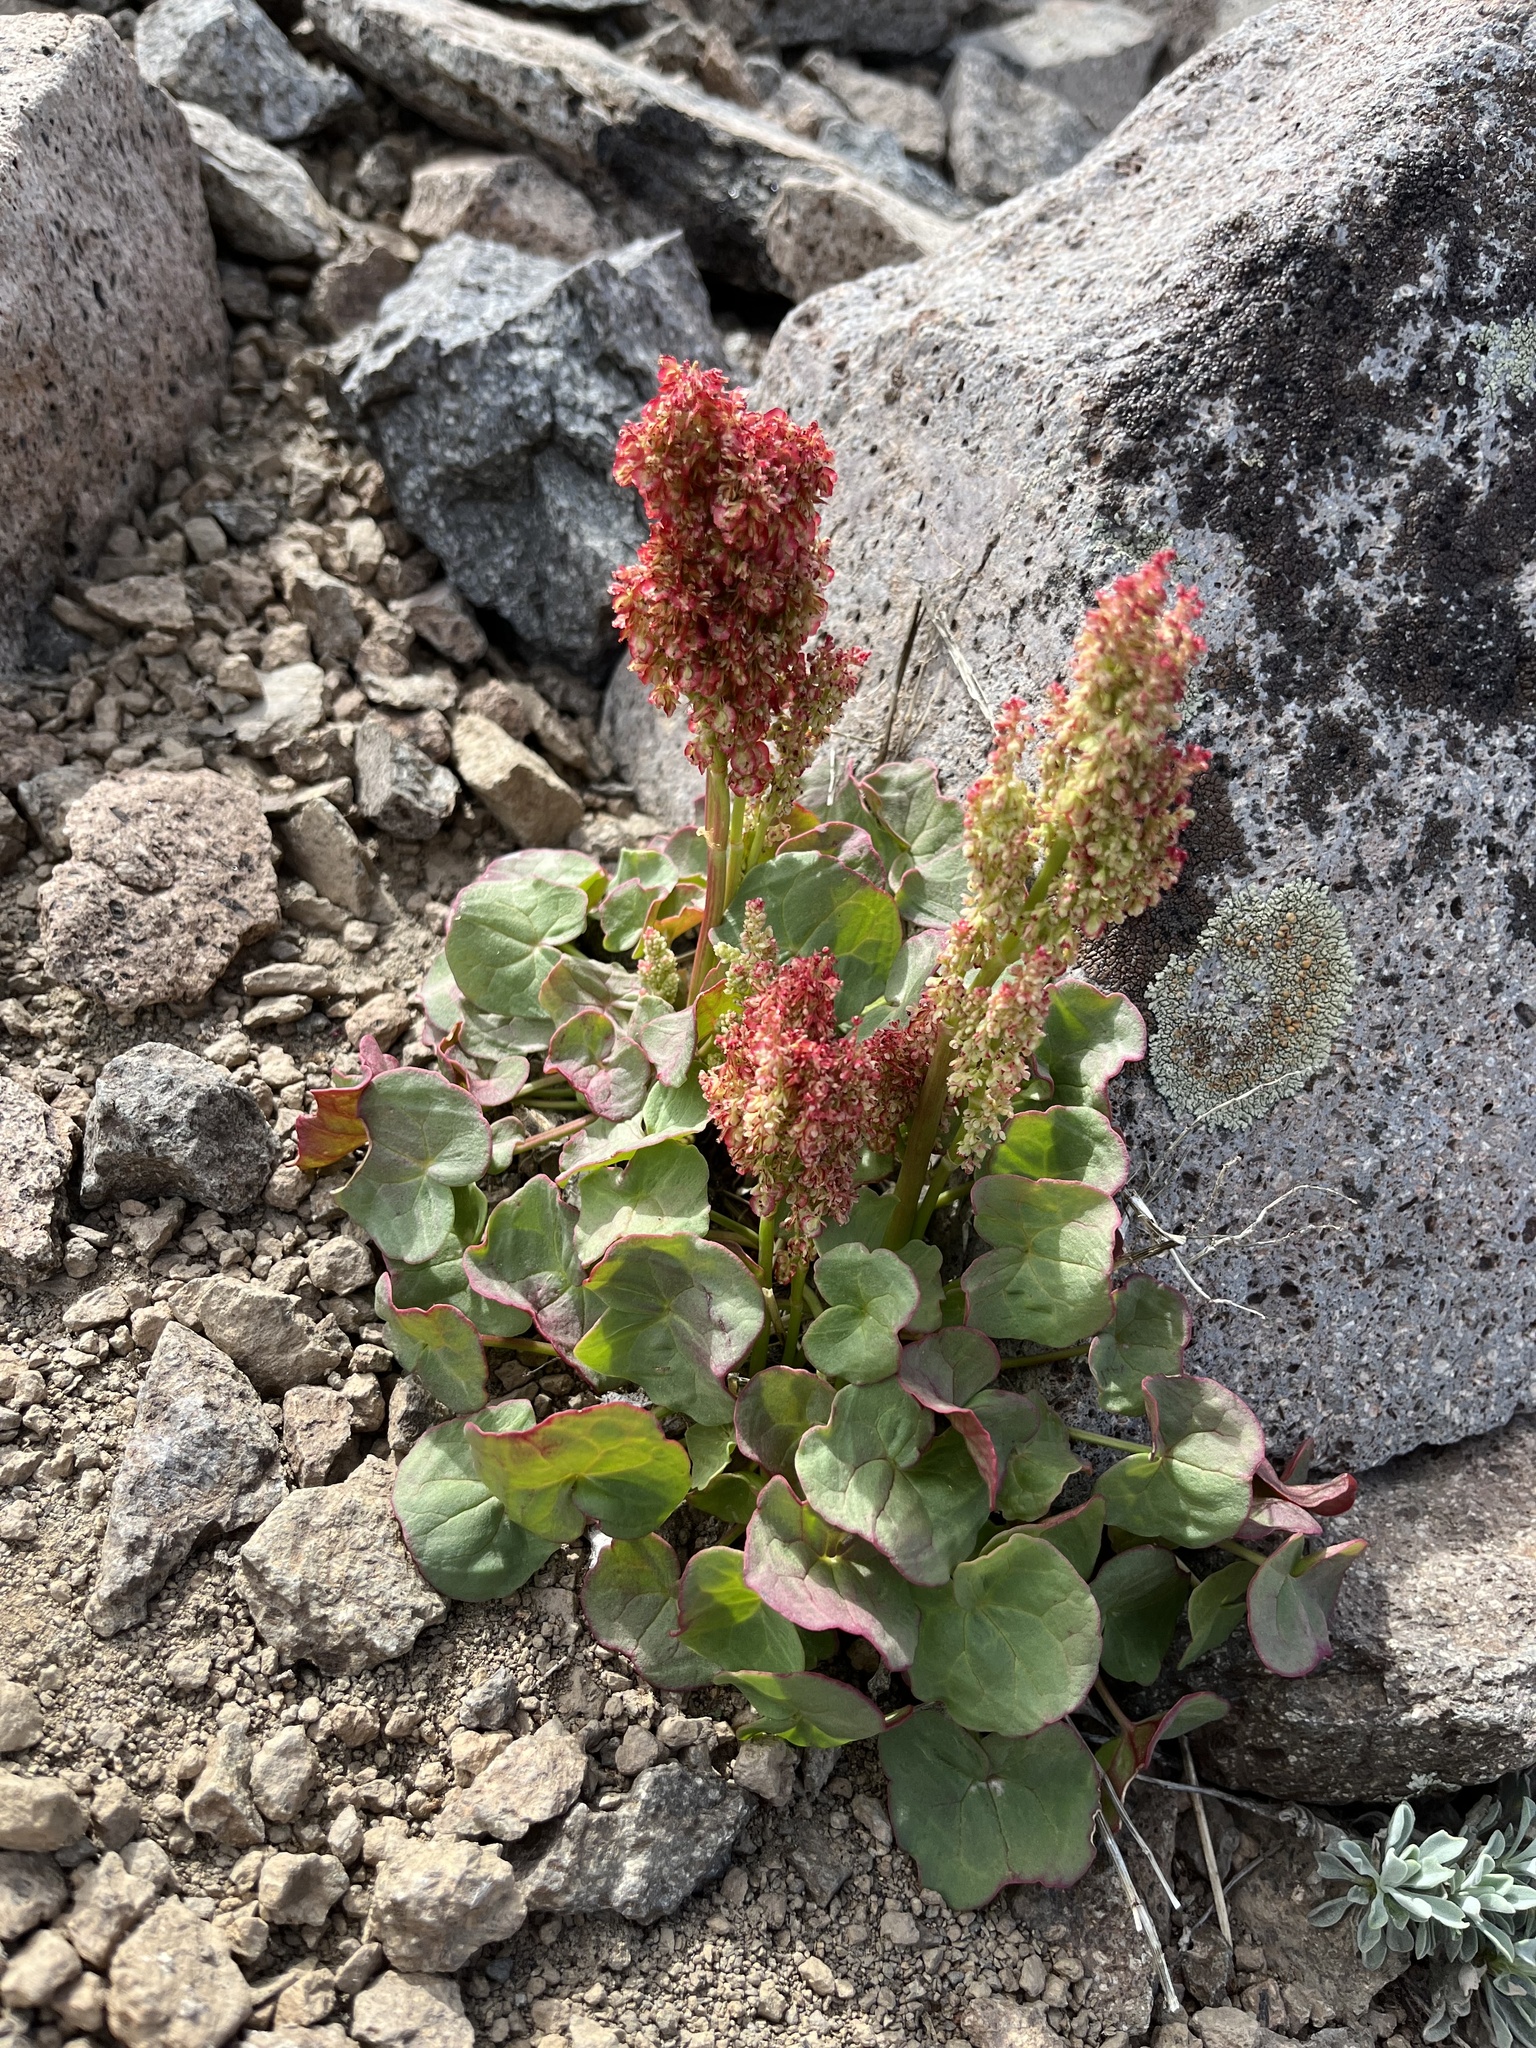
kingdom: Plantae
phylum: Tracheophyta
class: Magnoliopsida
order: Caryophyllales
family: Polygonaceae
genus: Oxyria
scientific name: Oxyria digyna
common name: Alpine mountain-sorrel
